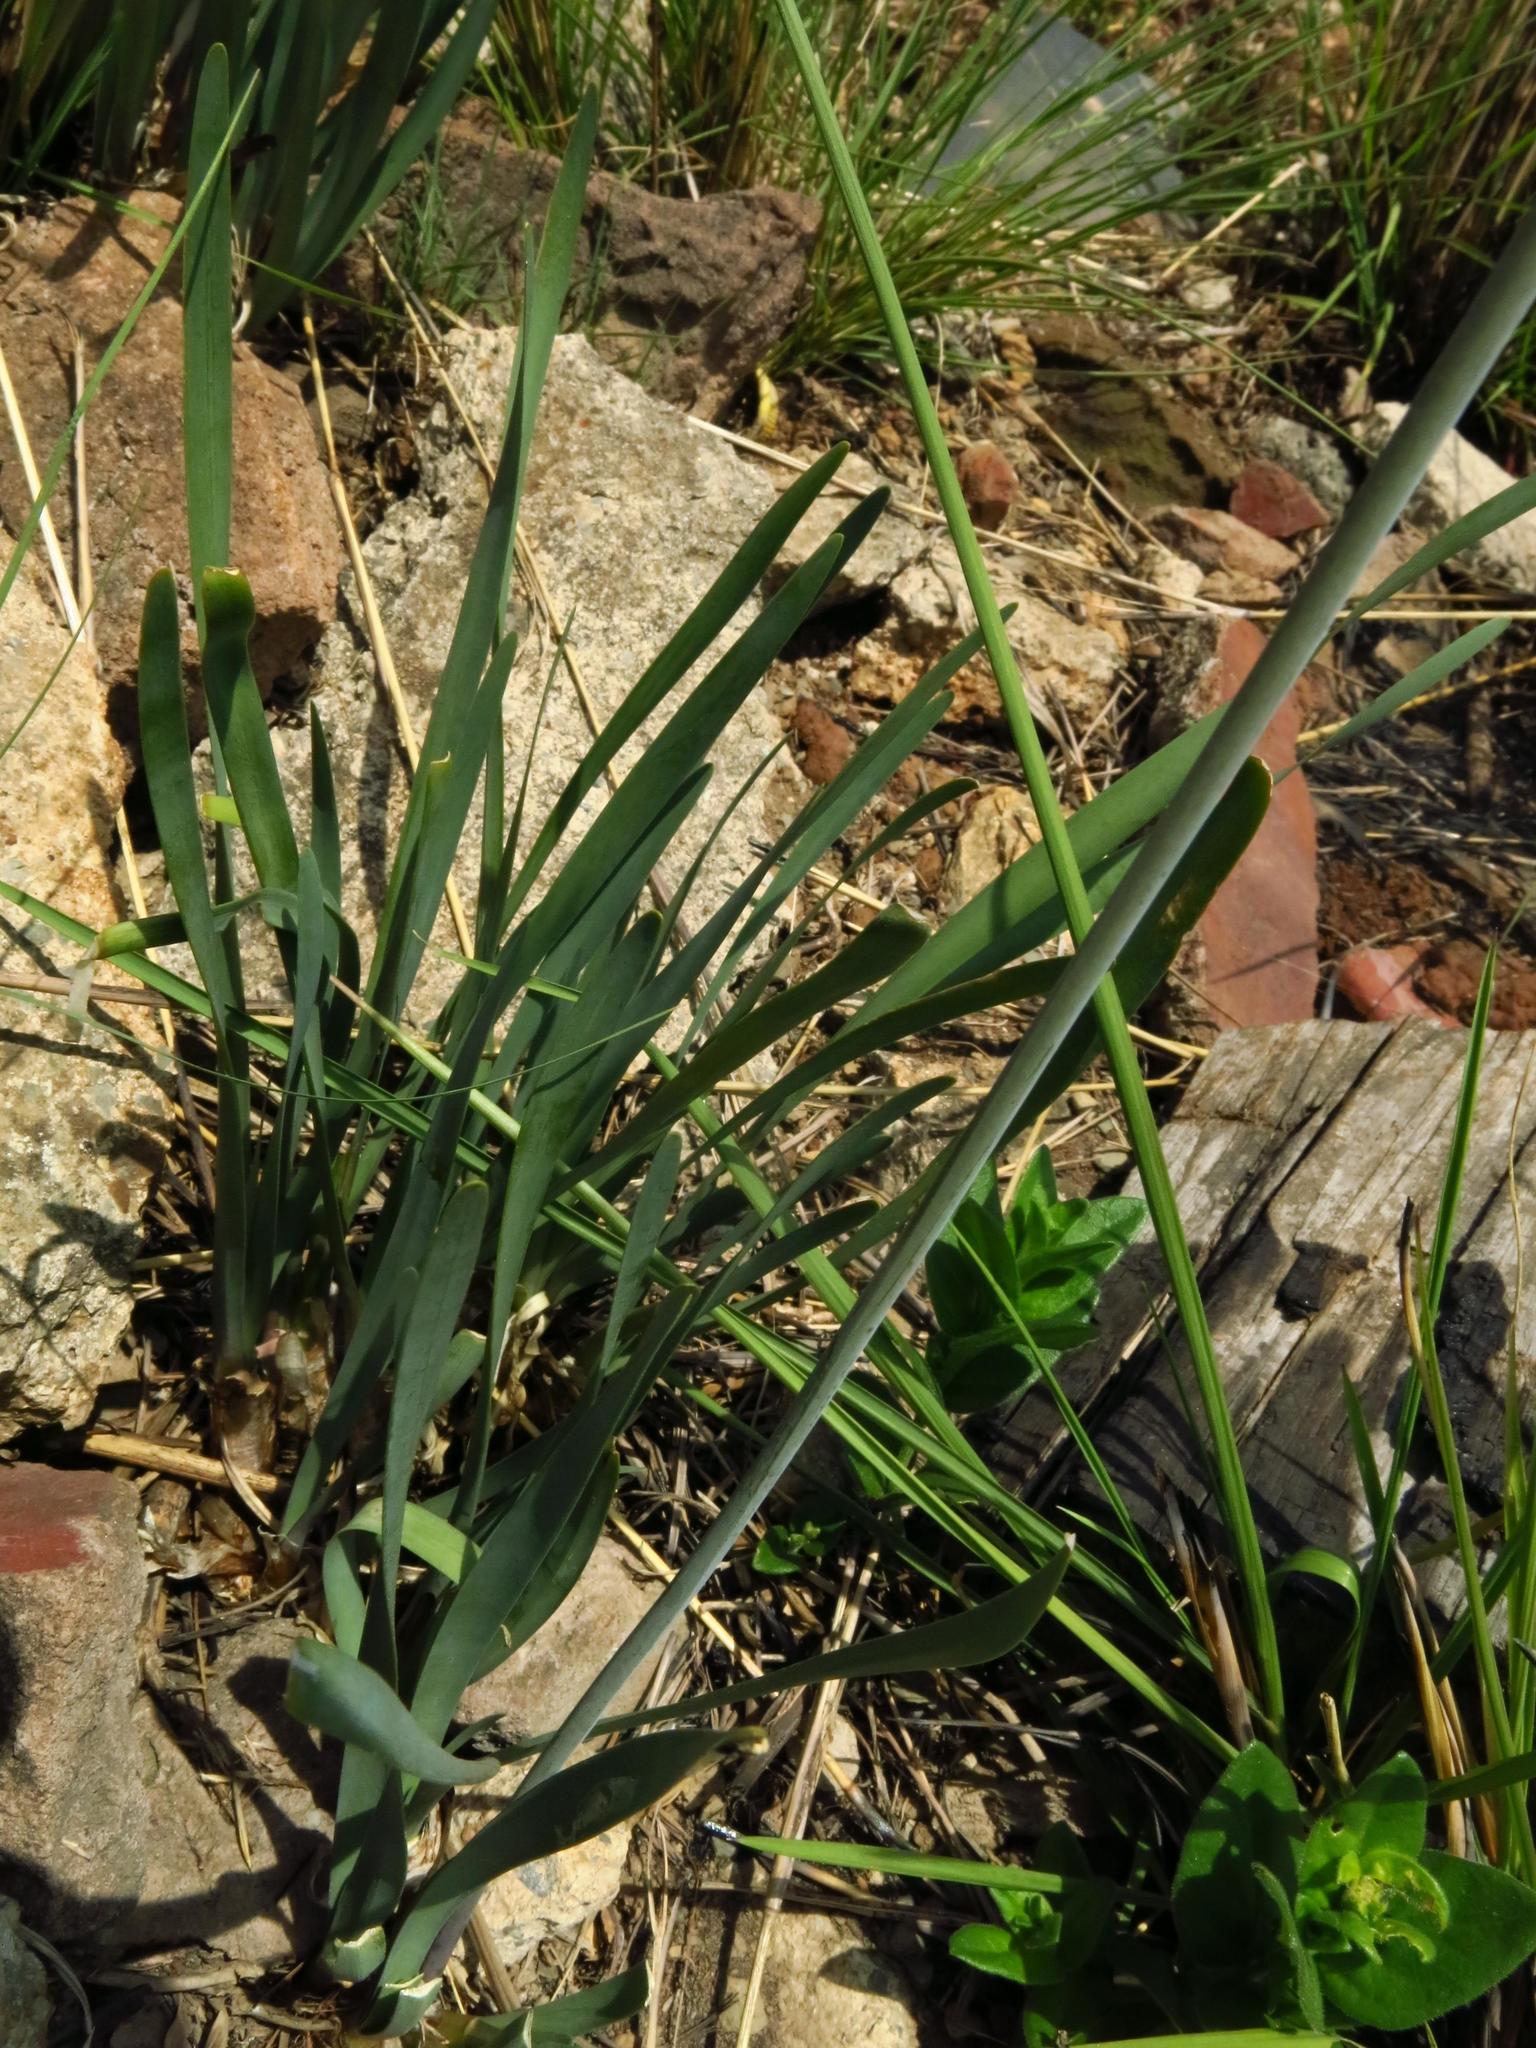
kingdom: Plantae
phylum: Tracheophyta
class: Liliopsida
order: Asparagales
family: Amaryllidaceae
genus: Tulbaghia
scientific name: Tulbaghia violacea
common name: Society garlic
